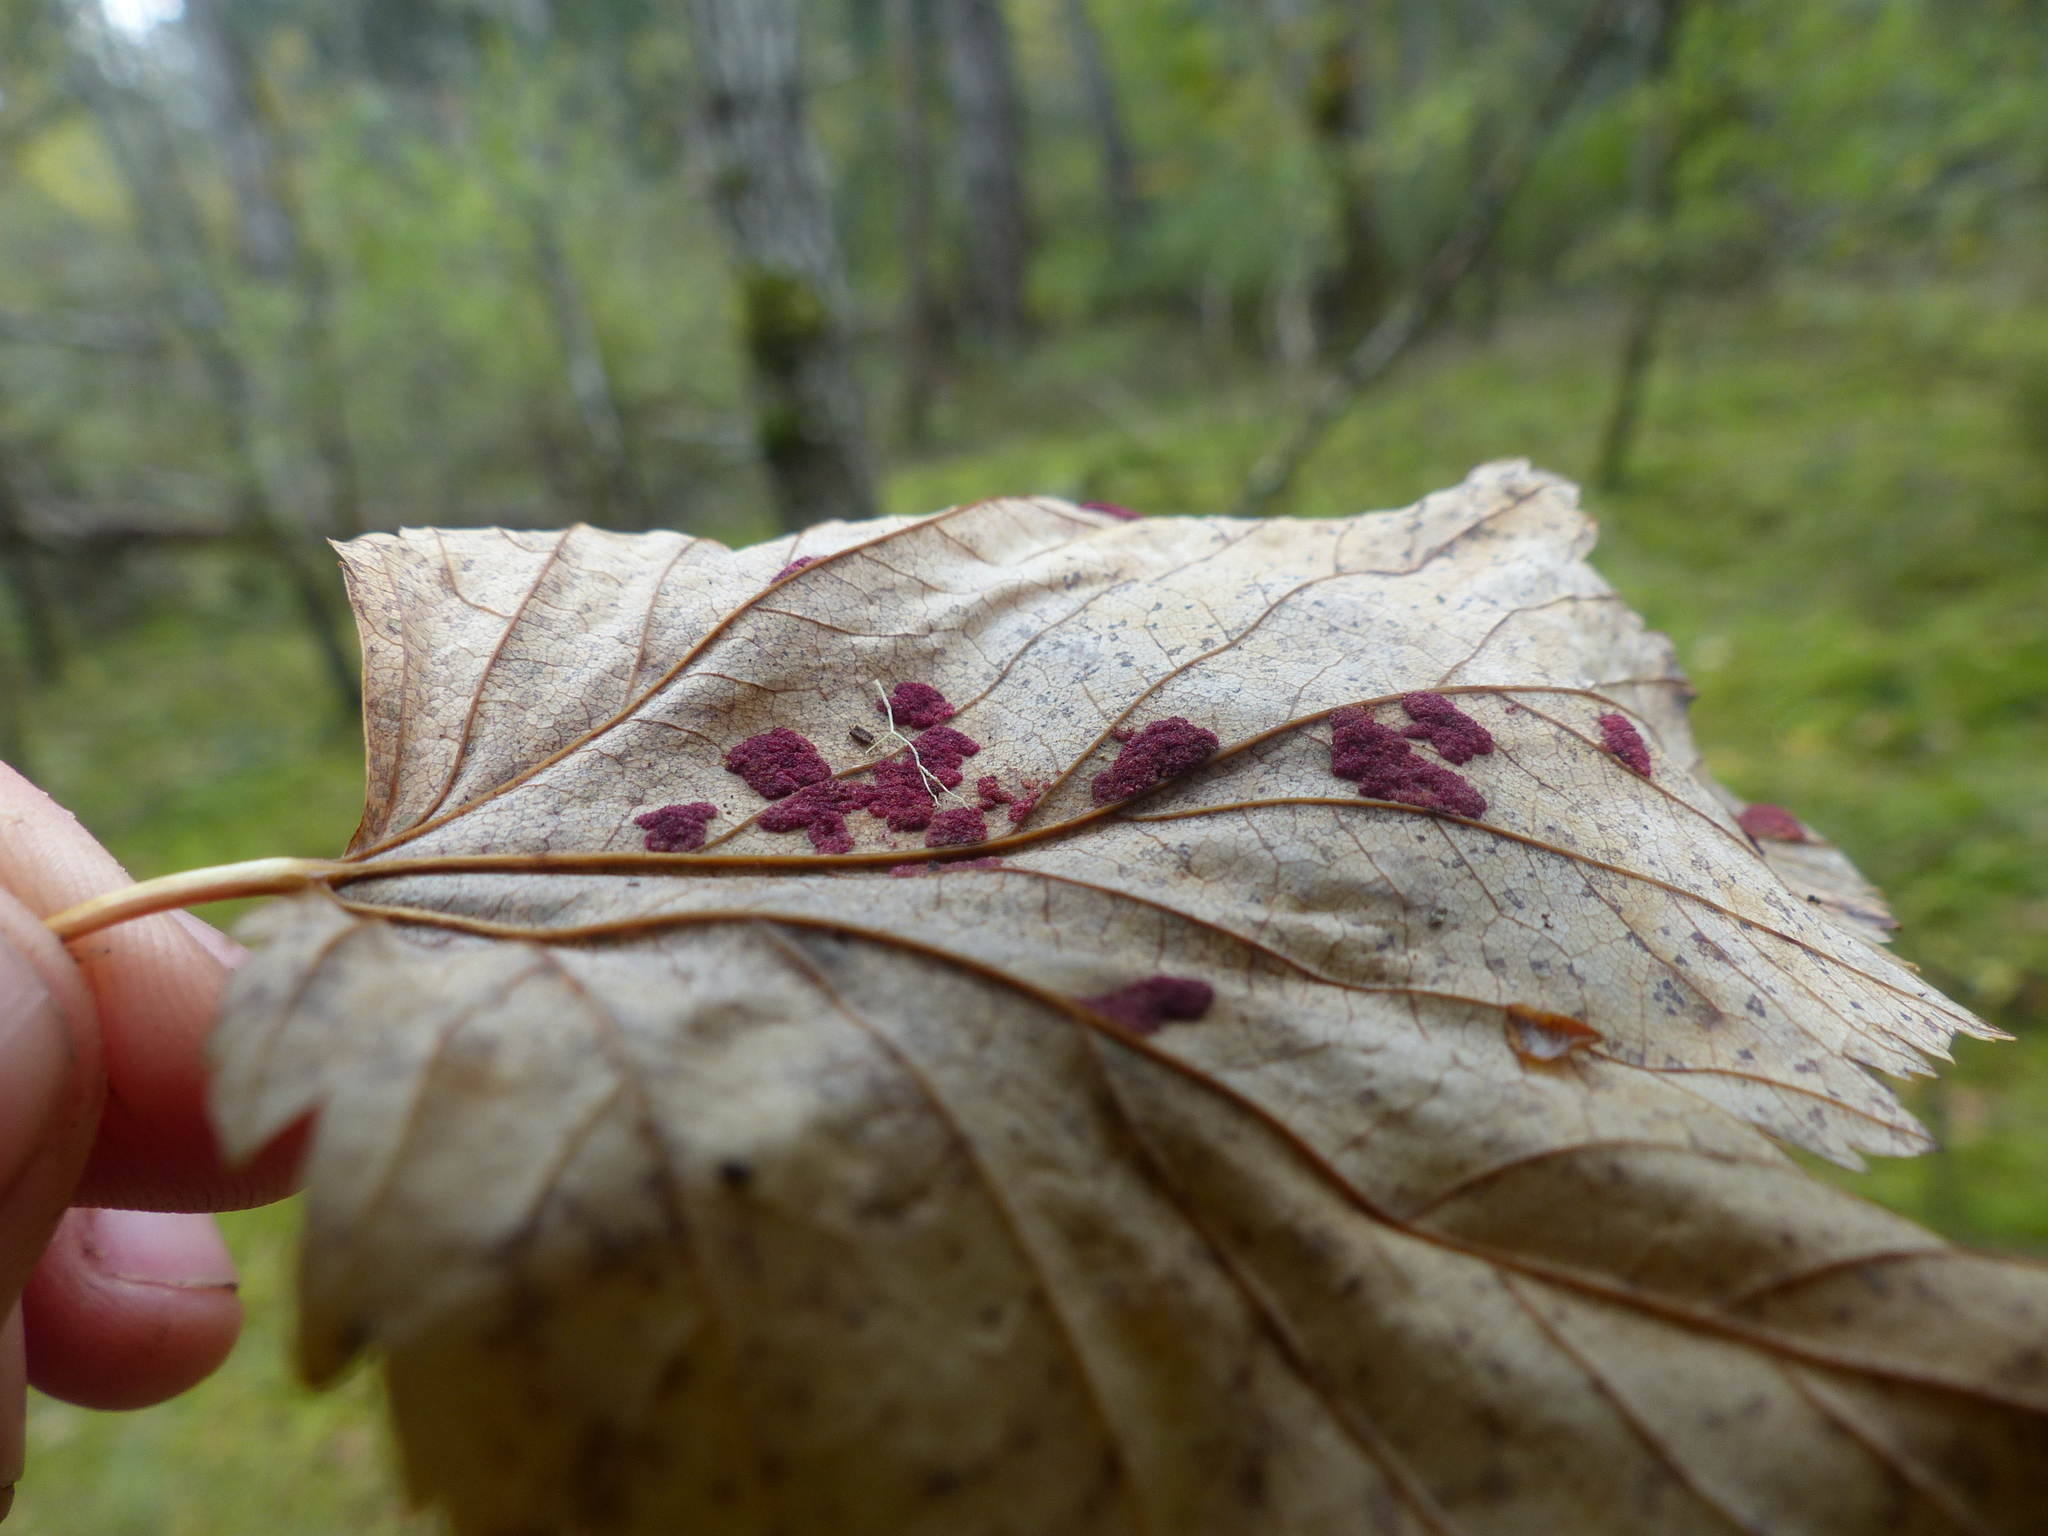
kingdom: Animalia
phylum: Arthropoda
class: Arachnida
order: Trombidiformes
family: Eriophyidae
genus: Aceria
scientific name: Aceria
